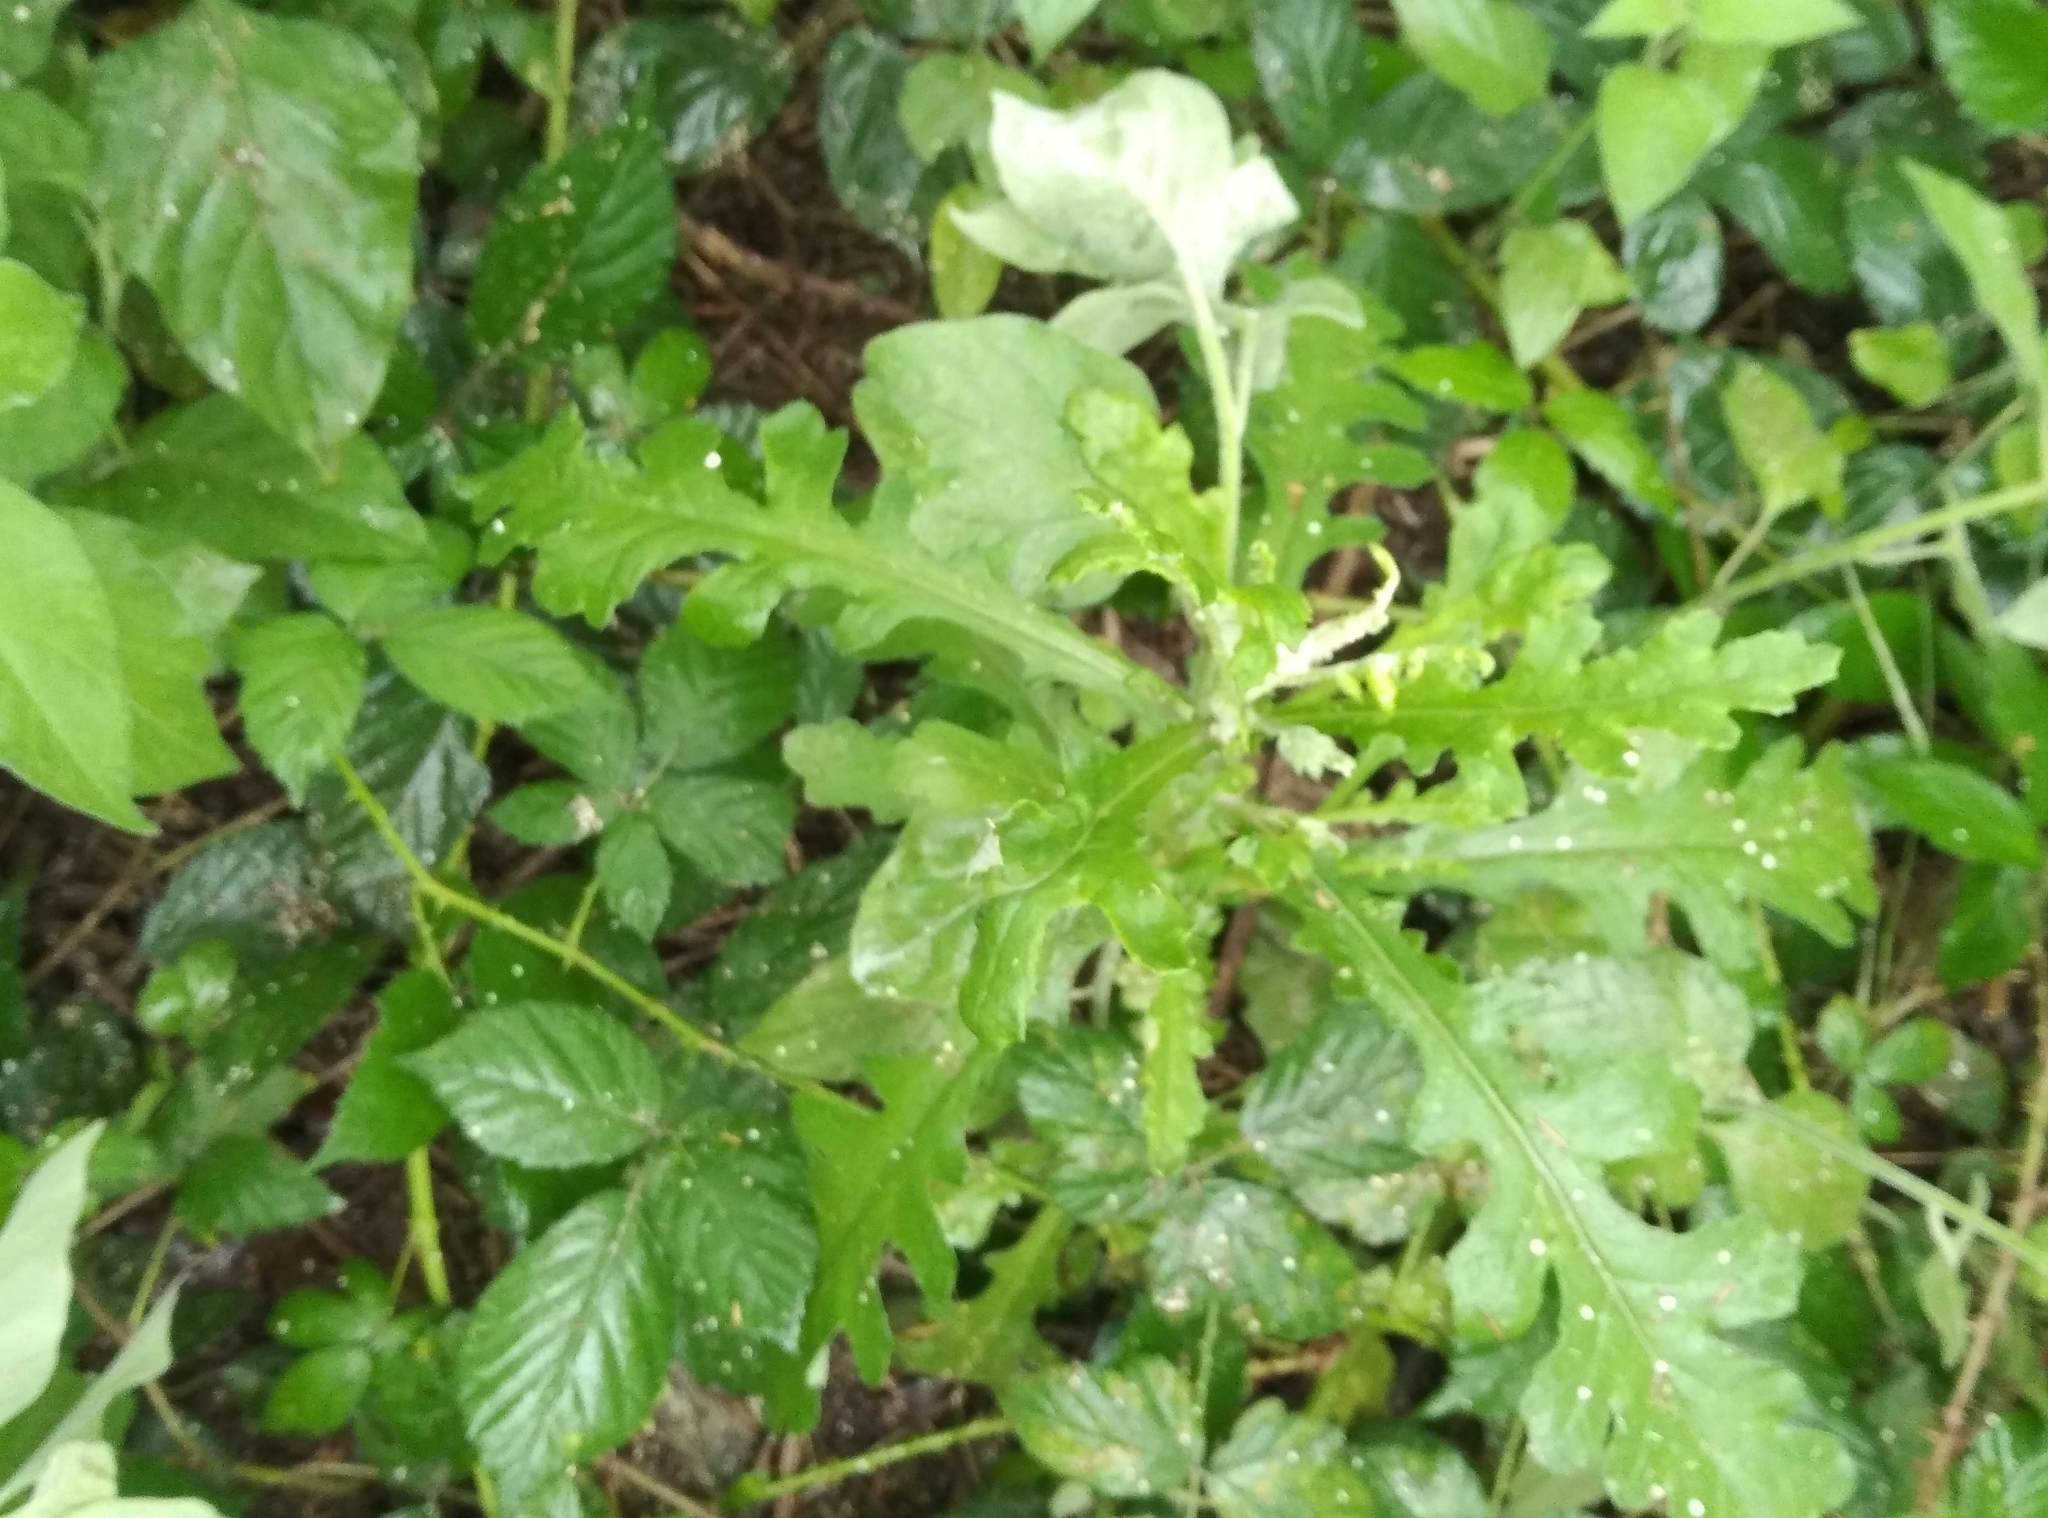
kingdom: Plantae
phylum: Tracheophyta
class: Magnoliopsida
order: Asterales
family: Asteraceae
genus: Senecio
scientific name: Senecio glomeratus
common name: Cutleaf burnweed
